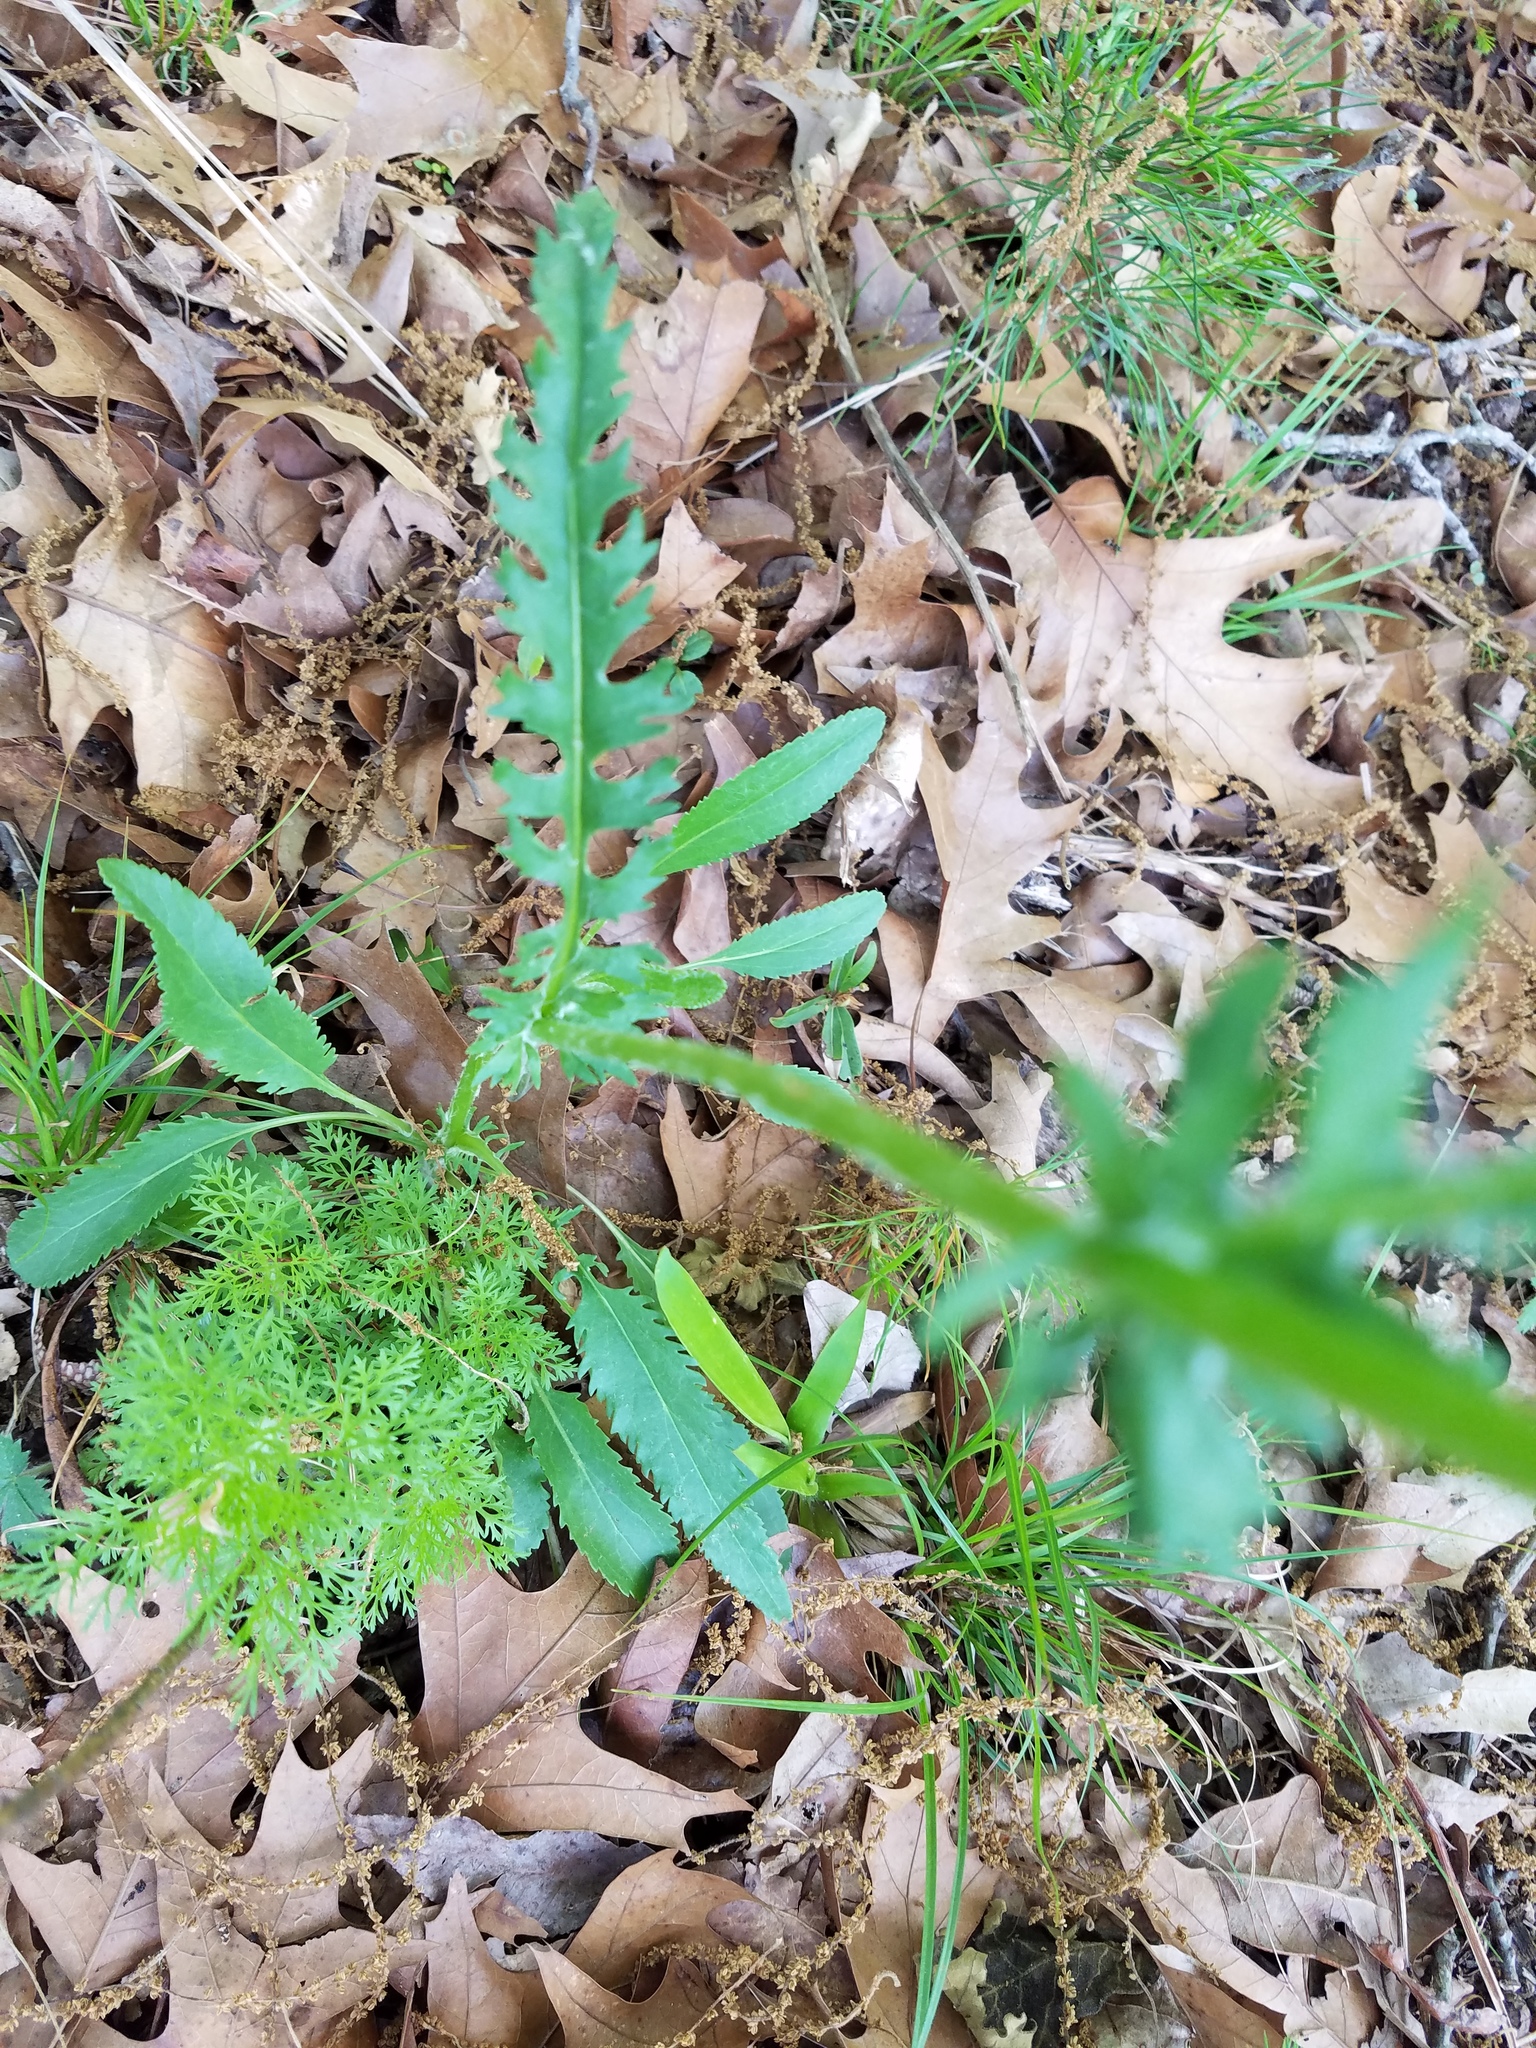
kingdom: Plantae
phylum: Tracheophyta
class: Magnoliopsida
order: Asterales
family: Asteraceae
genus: Packera
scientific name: Packera anonyma
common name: Small ragwort
